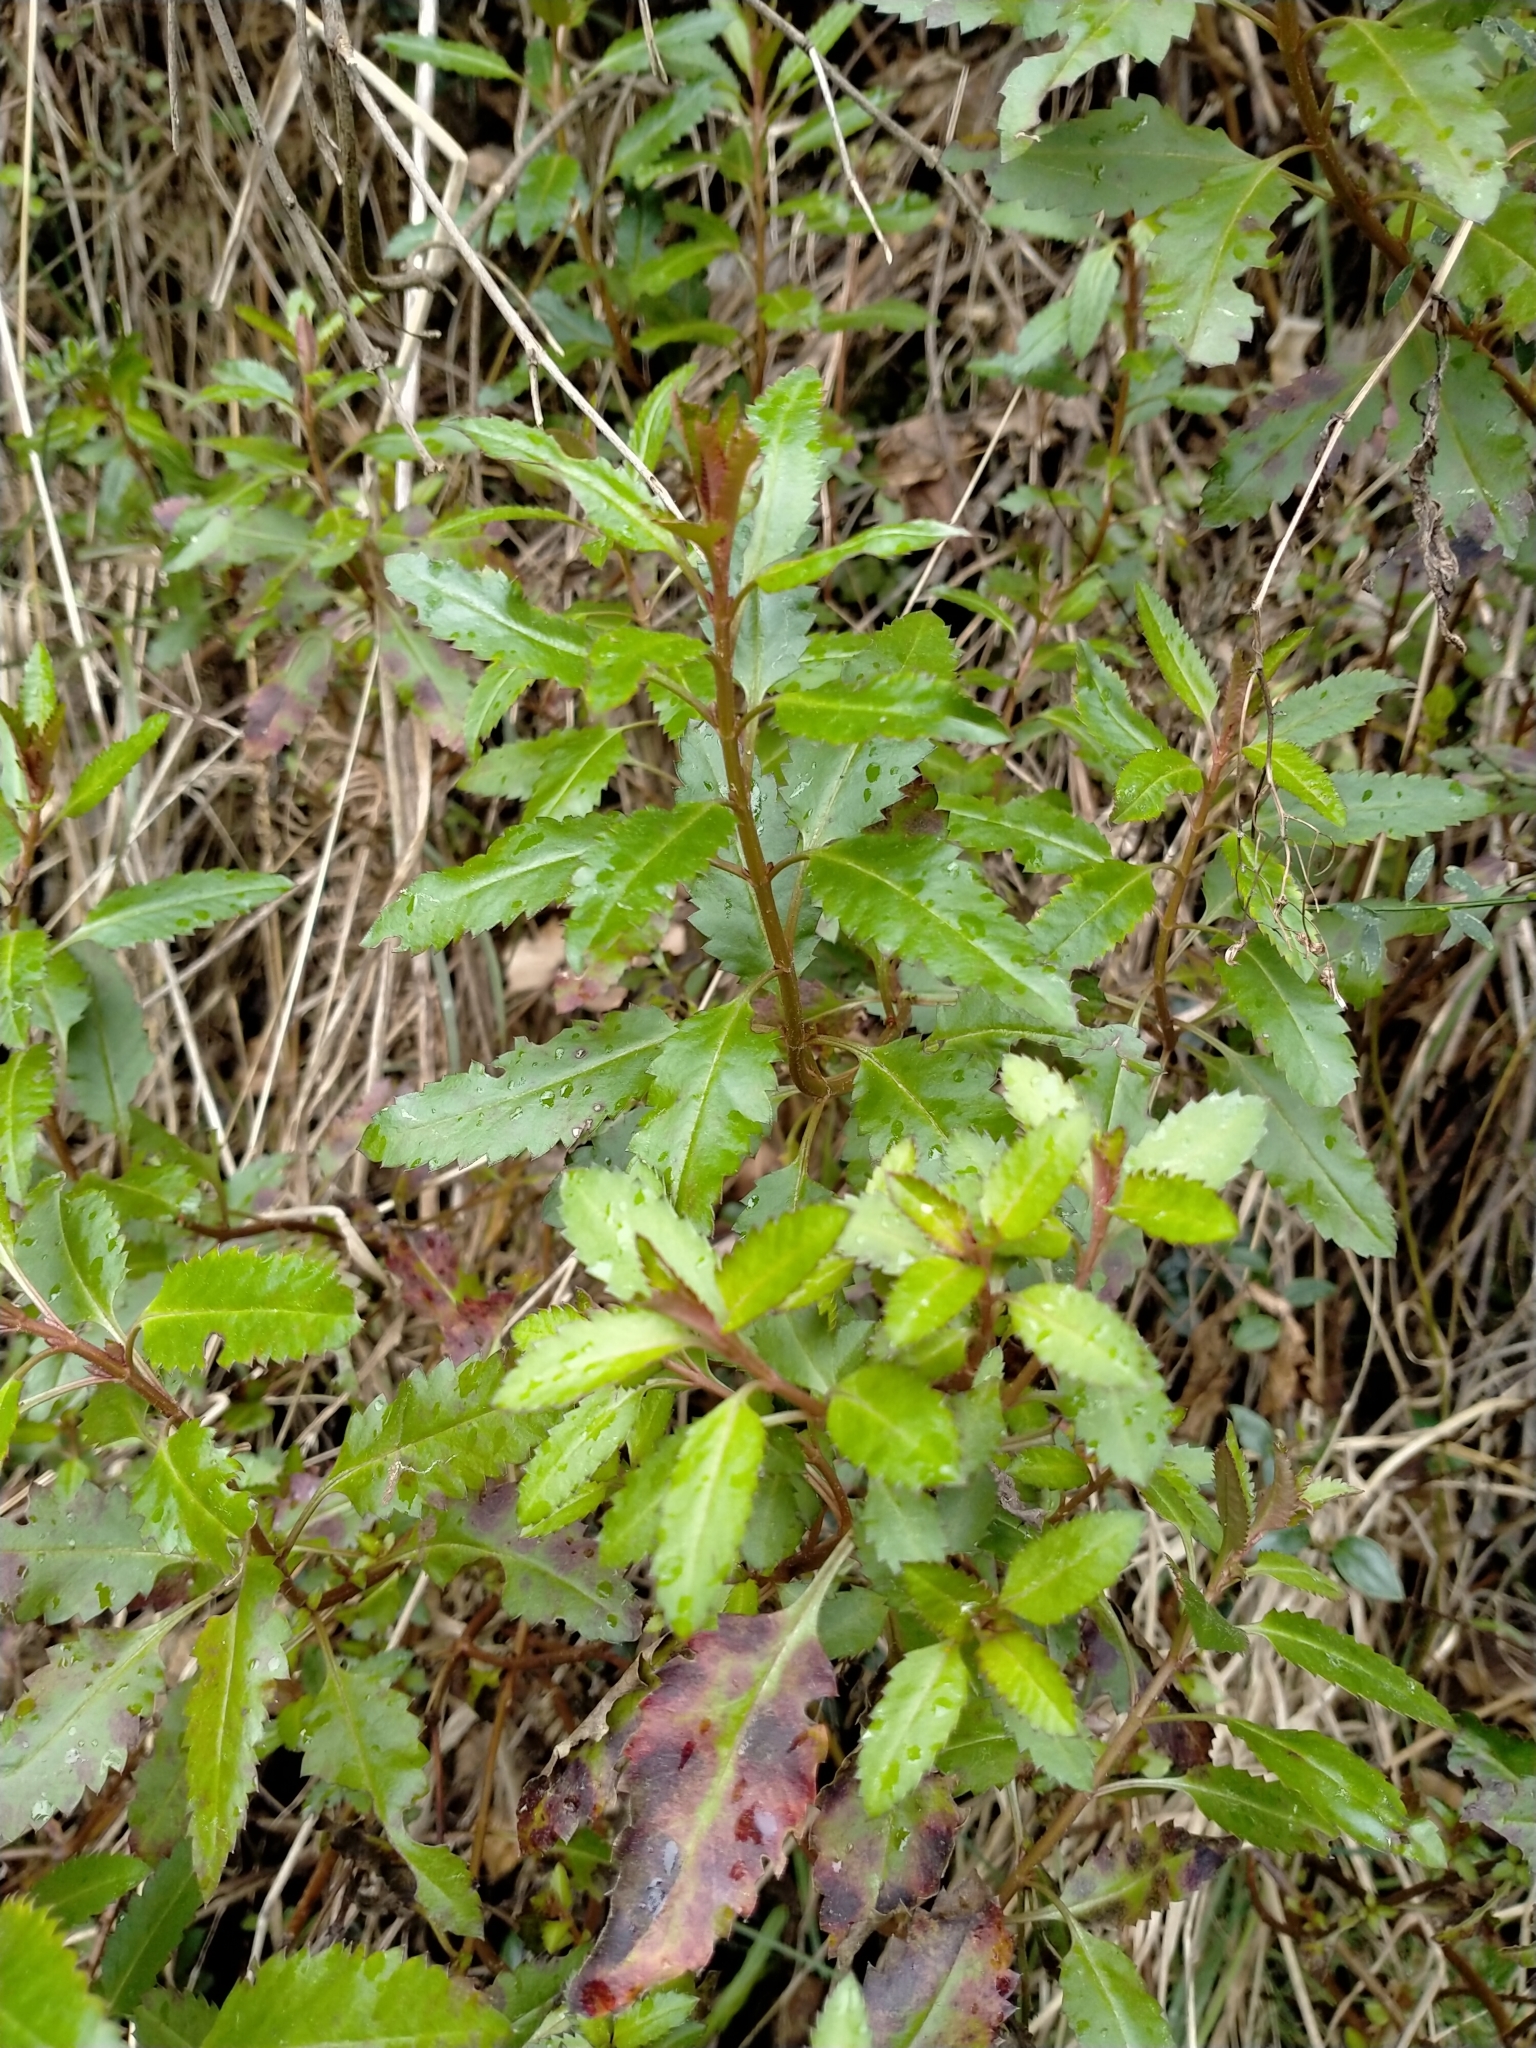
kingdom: Plantae
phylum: Tracheophyta
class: Magnoliopsida
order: Saxifragales
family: Haloragaceae
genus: Haloragis
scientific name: Haloragis erecta
